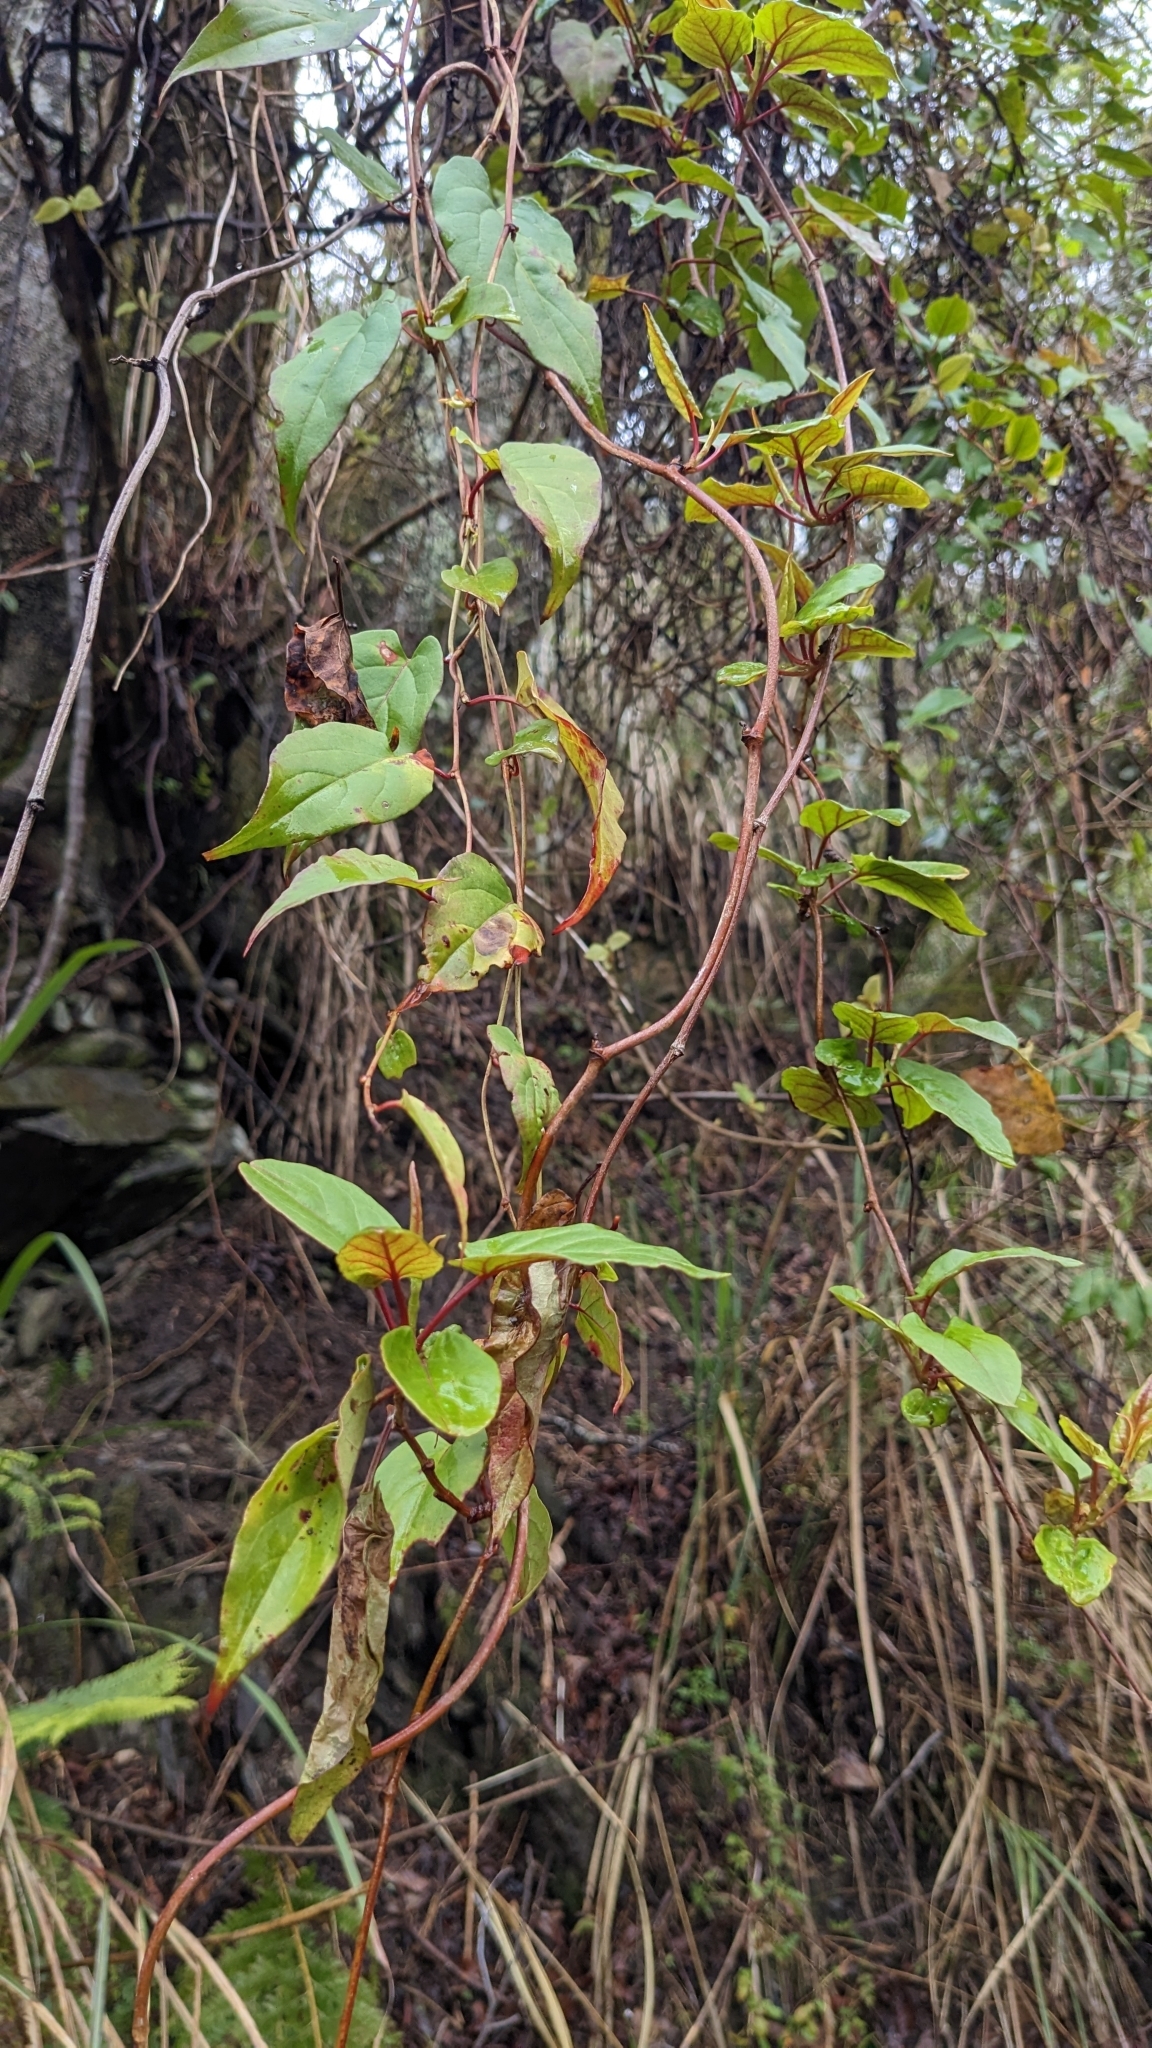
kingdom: Plantae
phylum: Tracheophyta
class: Magnoliopsida
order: Caryophyllales
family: Polygonaceae
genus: Reynoutria
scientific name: Reynoutria multiflora
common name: Chinese fleeceflower
